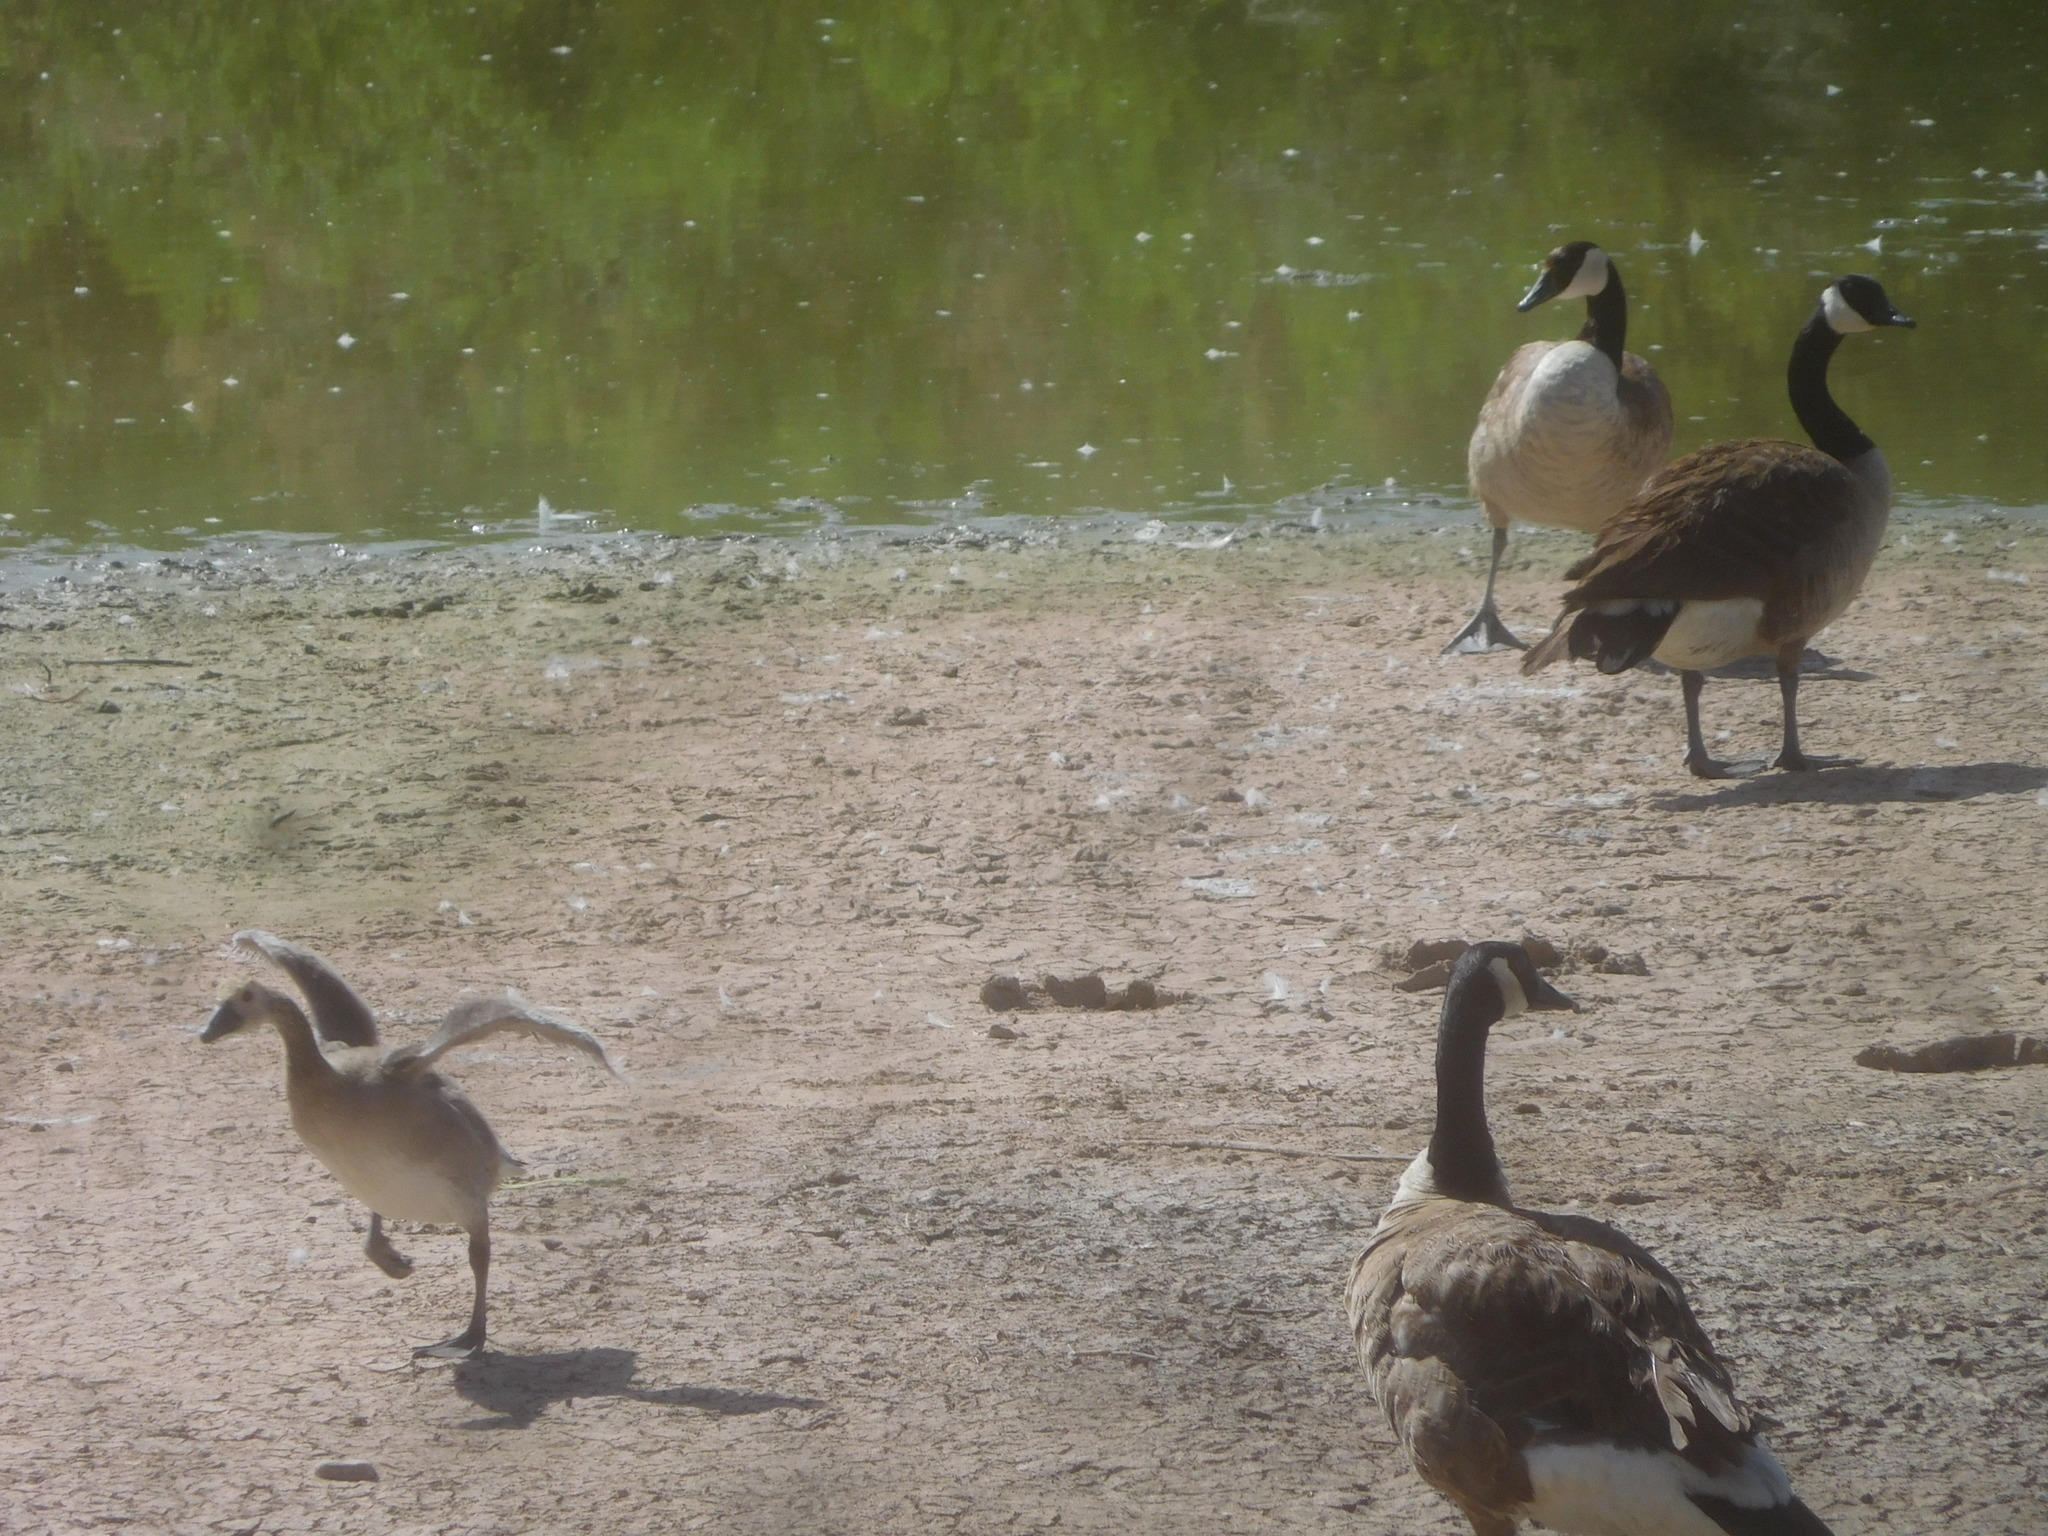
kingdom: Animalia
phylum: Chordata
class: Aves
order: Anseriformes
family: Anatidae
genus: Branta
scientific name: Branta canadensis
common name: Canada goose
